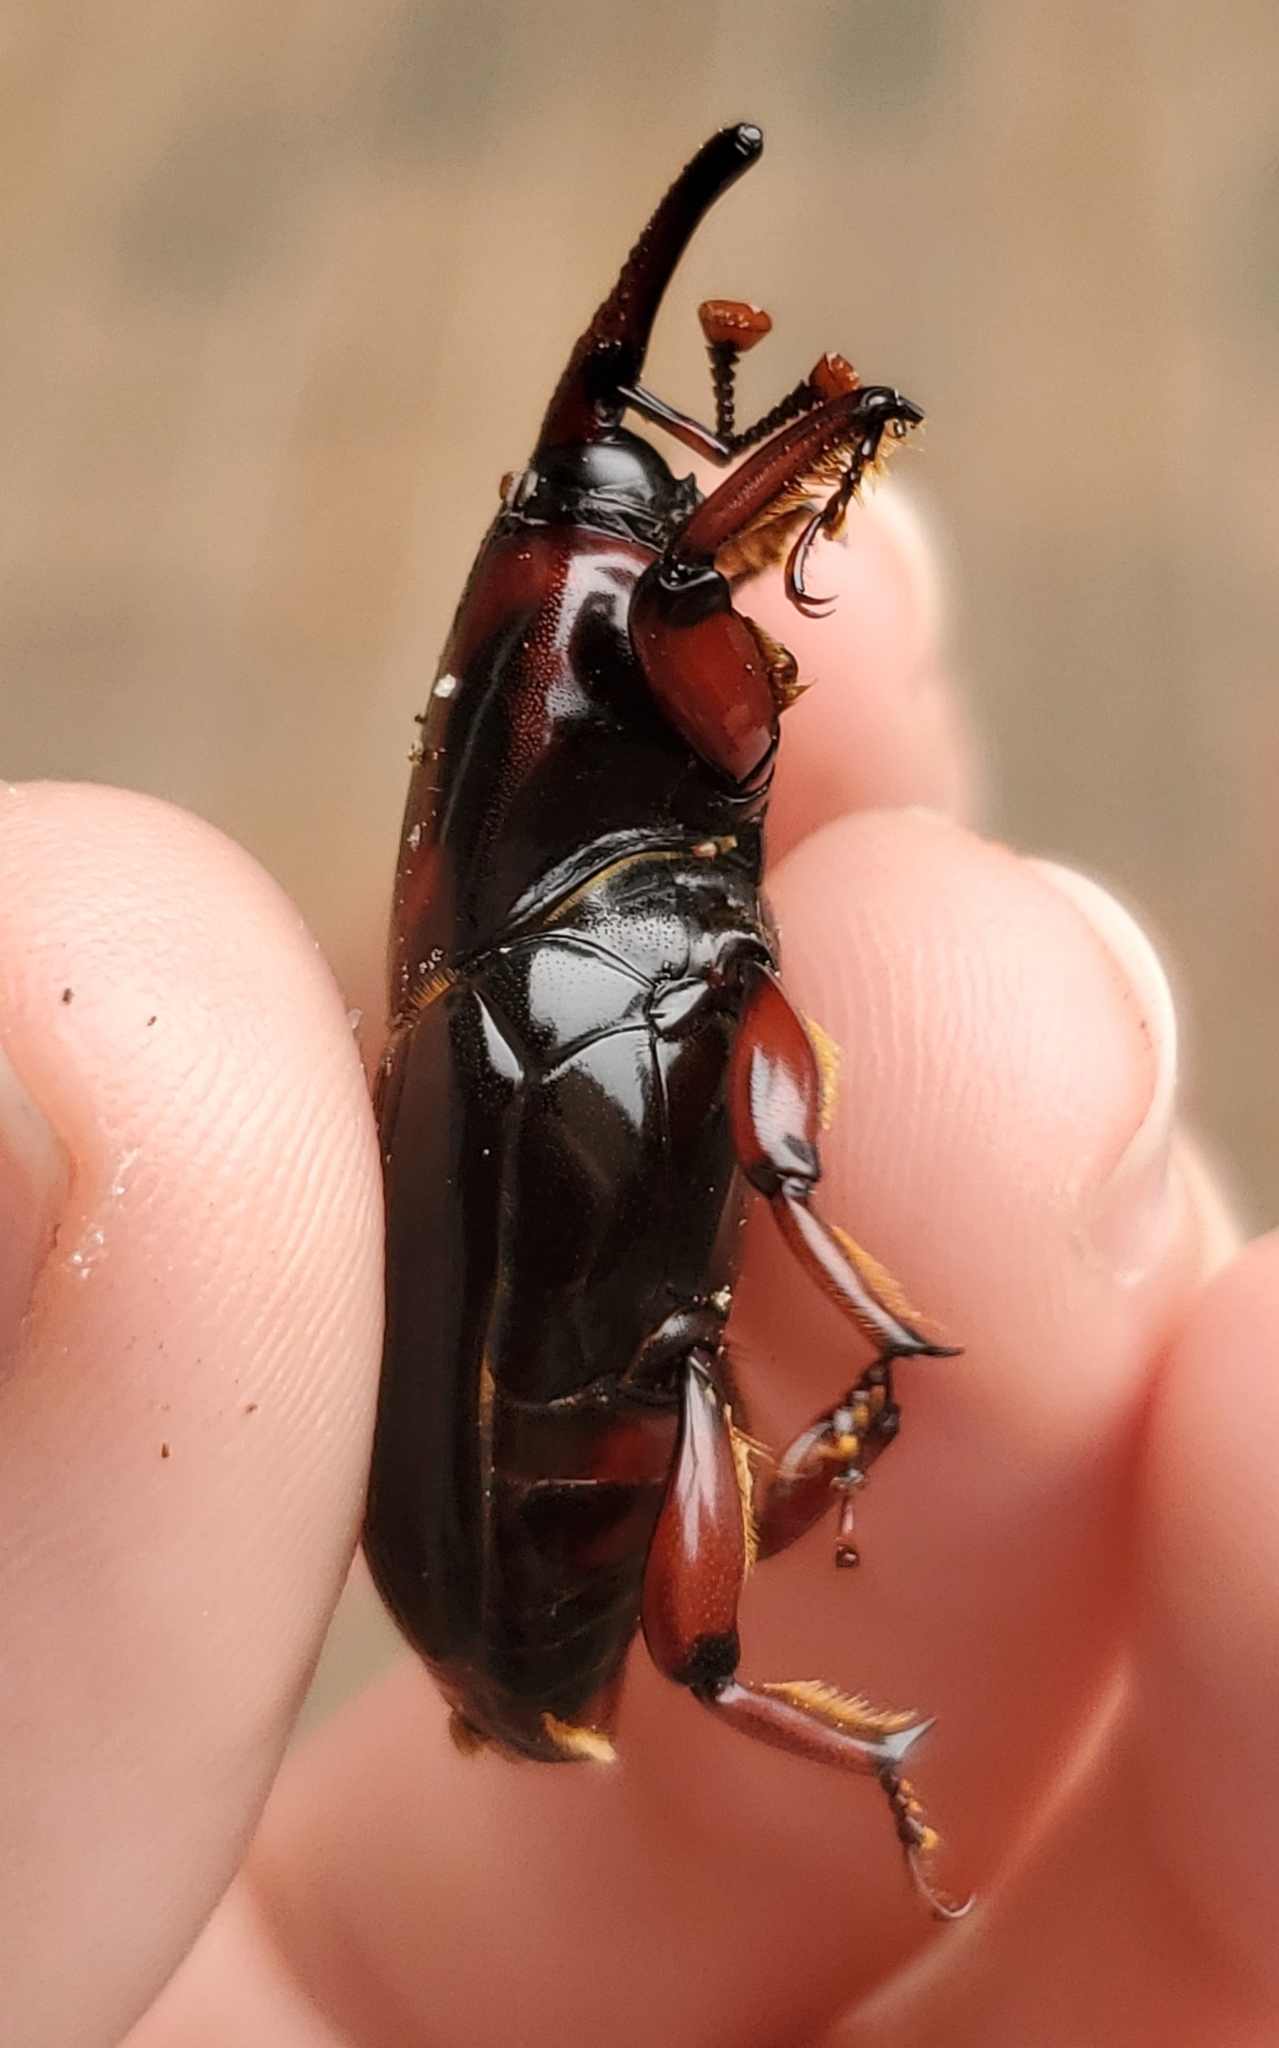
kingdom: Animalia
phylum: Arthropoda
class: Insecta
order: Coleoptera
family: Dryophthoridae
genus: Rhynchophorus
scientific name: Rhynchophorus cruentatus
